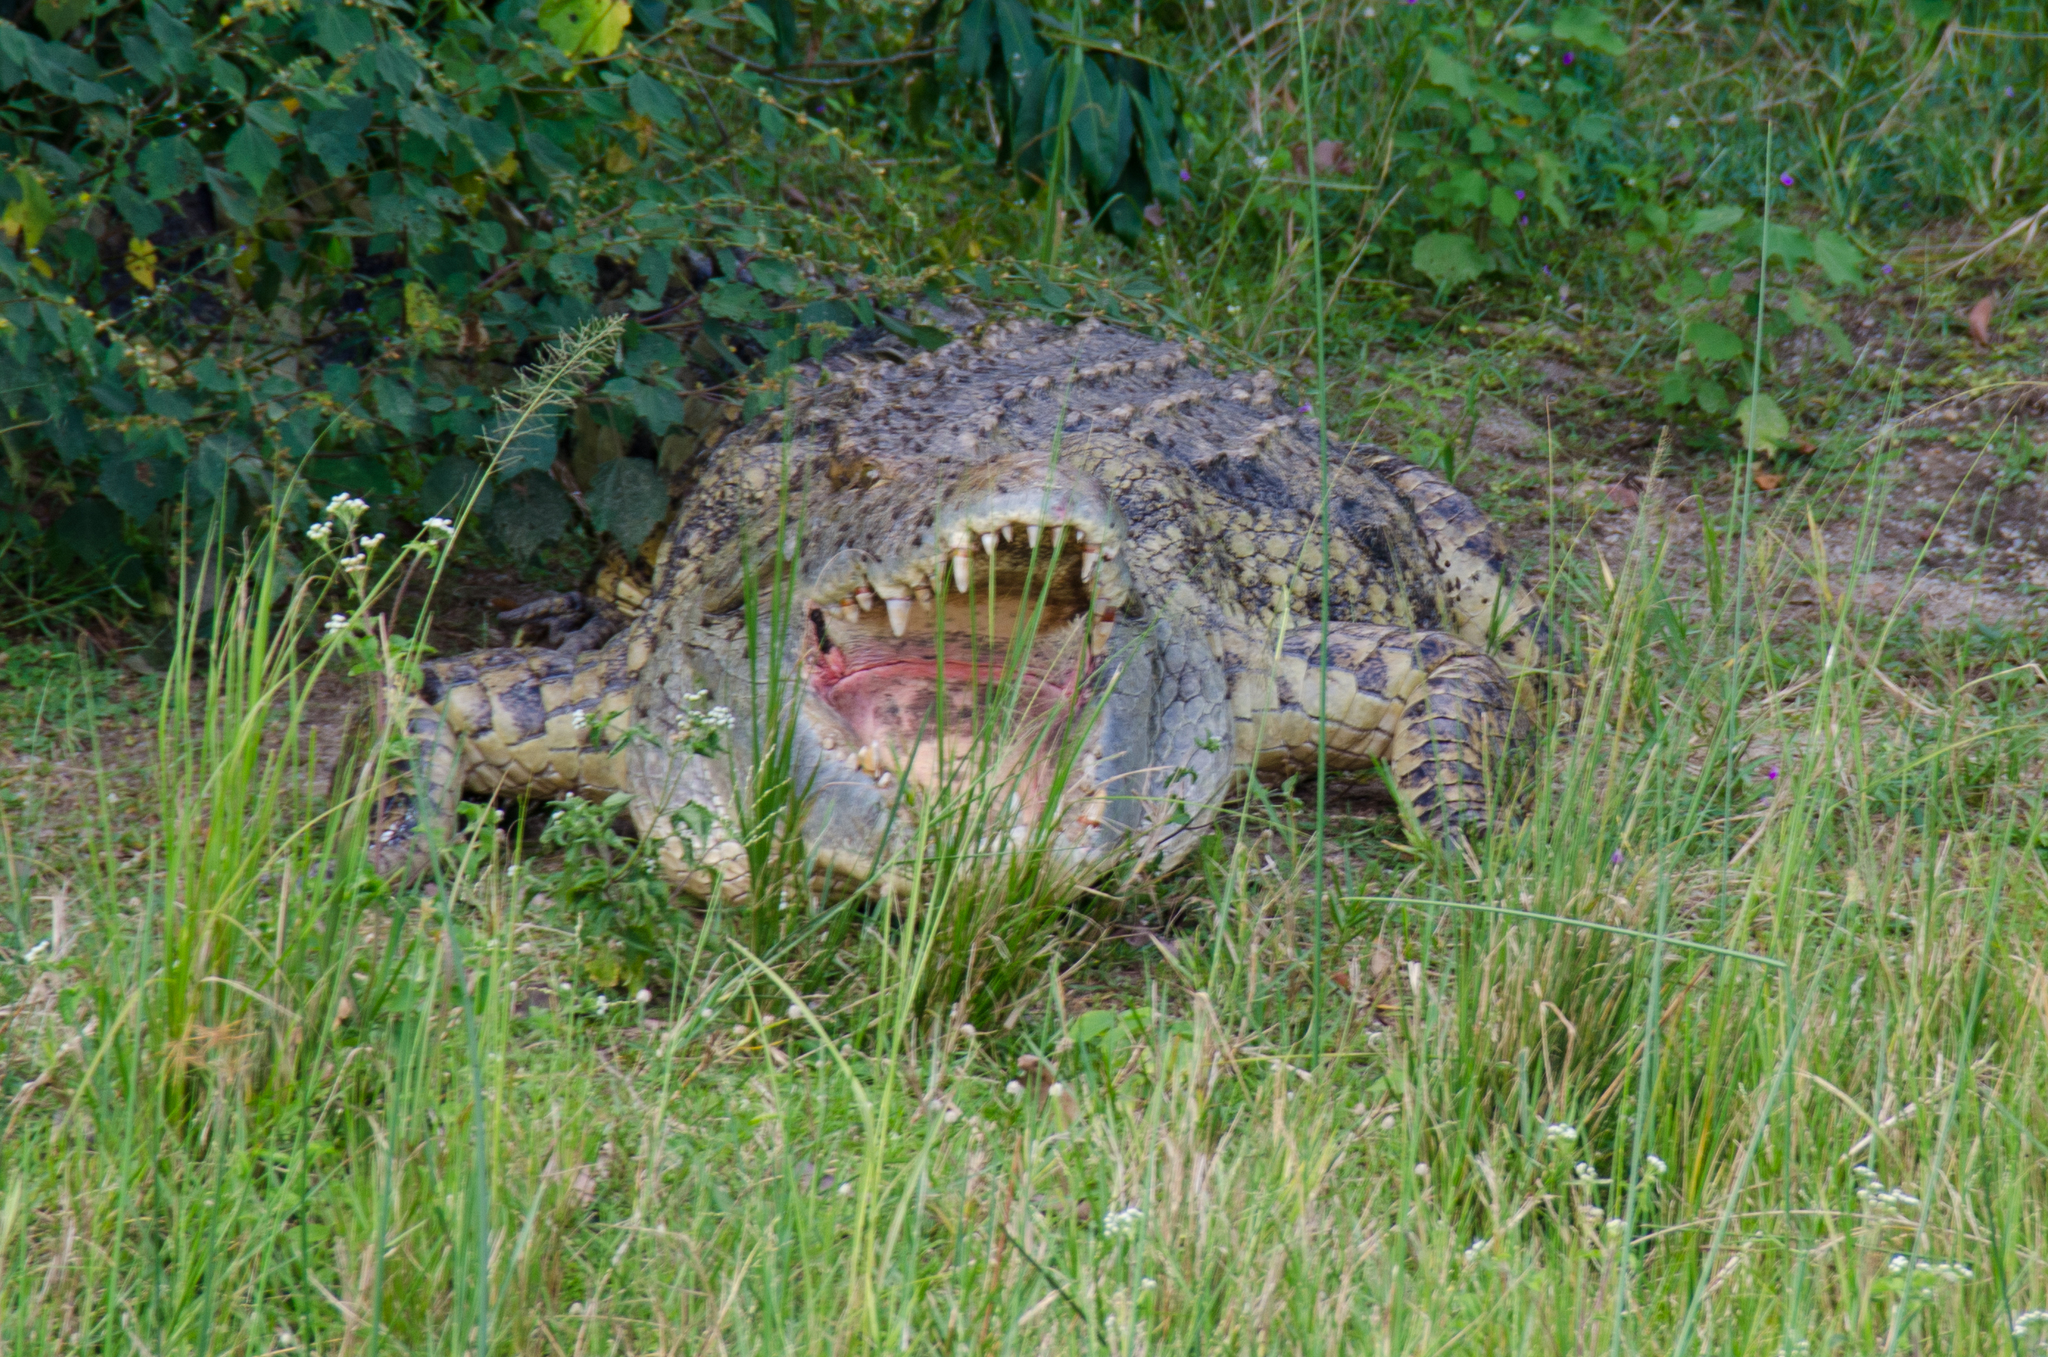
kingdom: Animalia
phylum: Chordata
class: Crocodylia
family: Crocodylidae
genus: Crocodylus
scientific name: Crocodylus niloticus
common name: Nile crocodile
